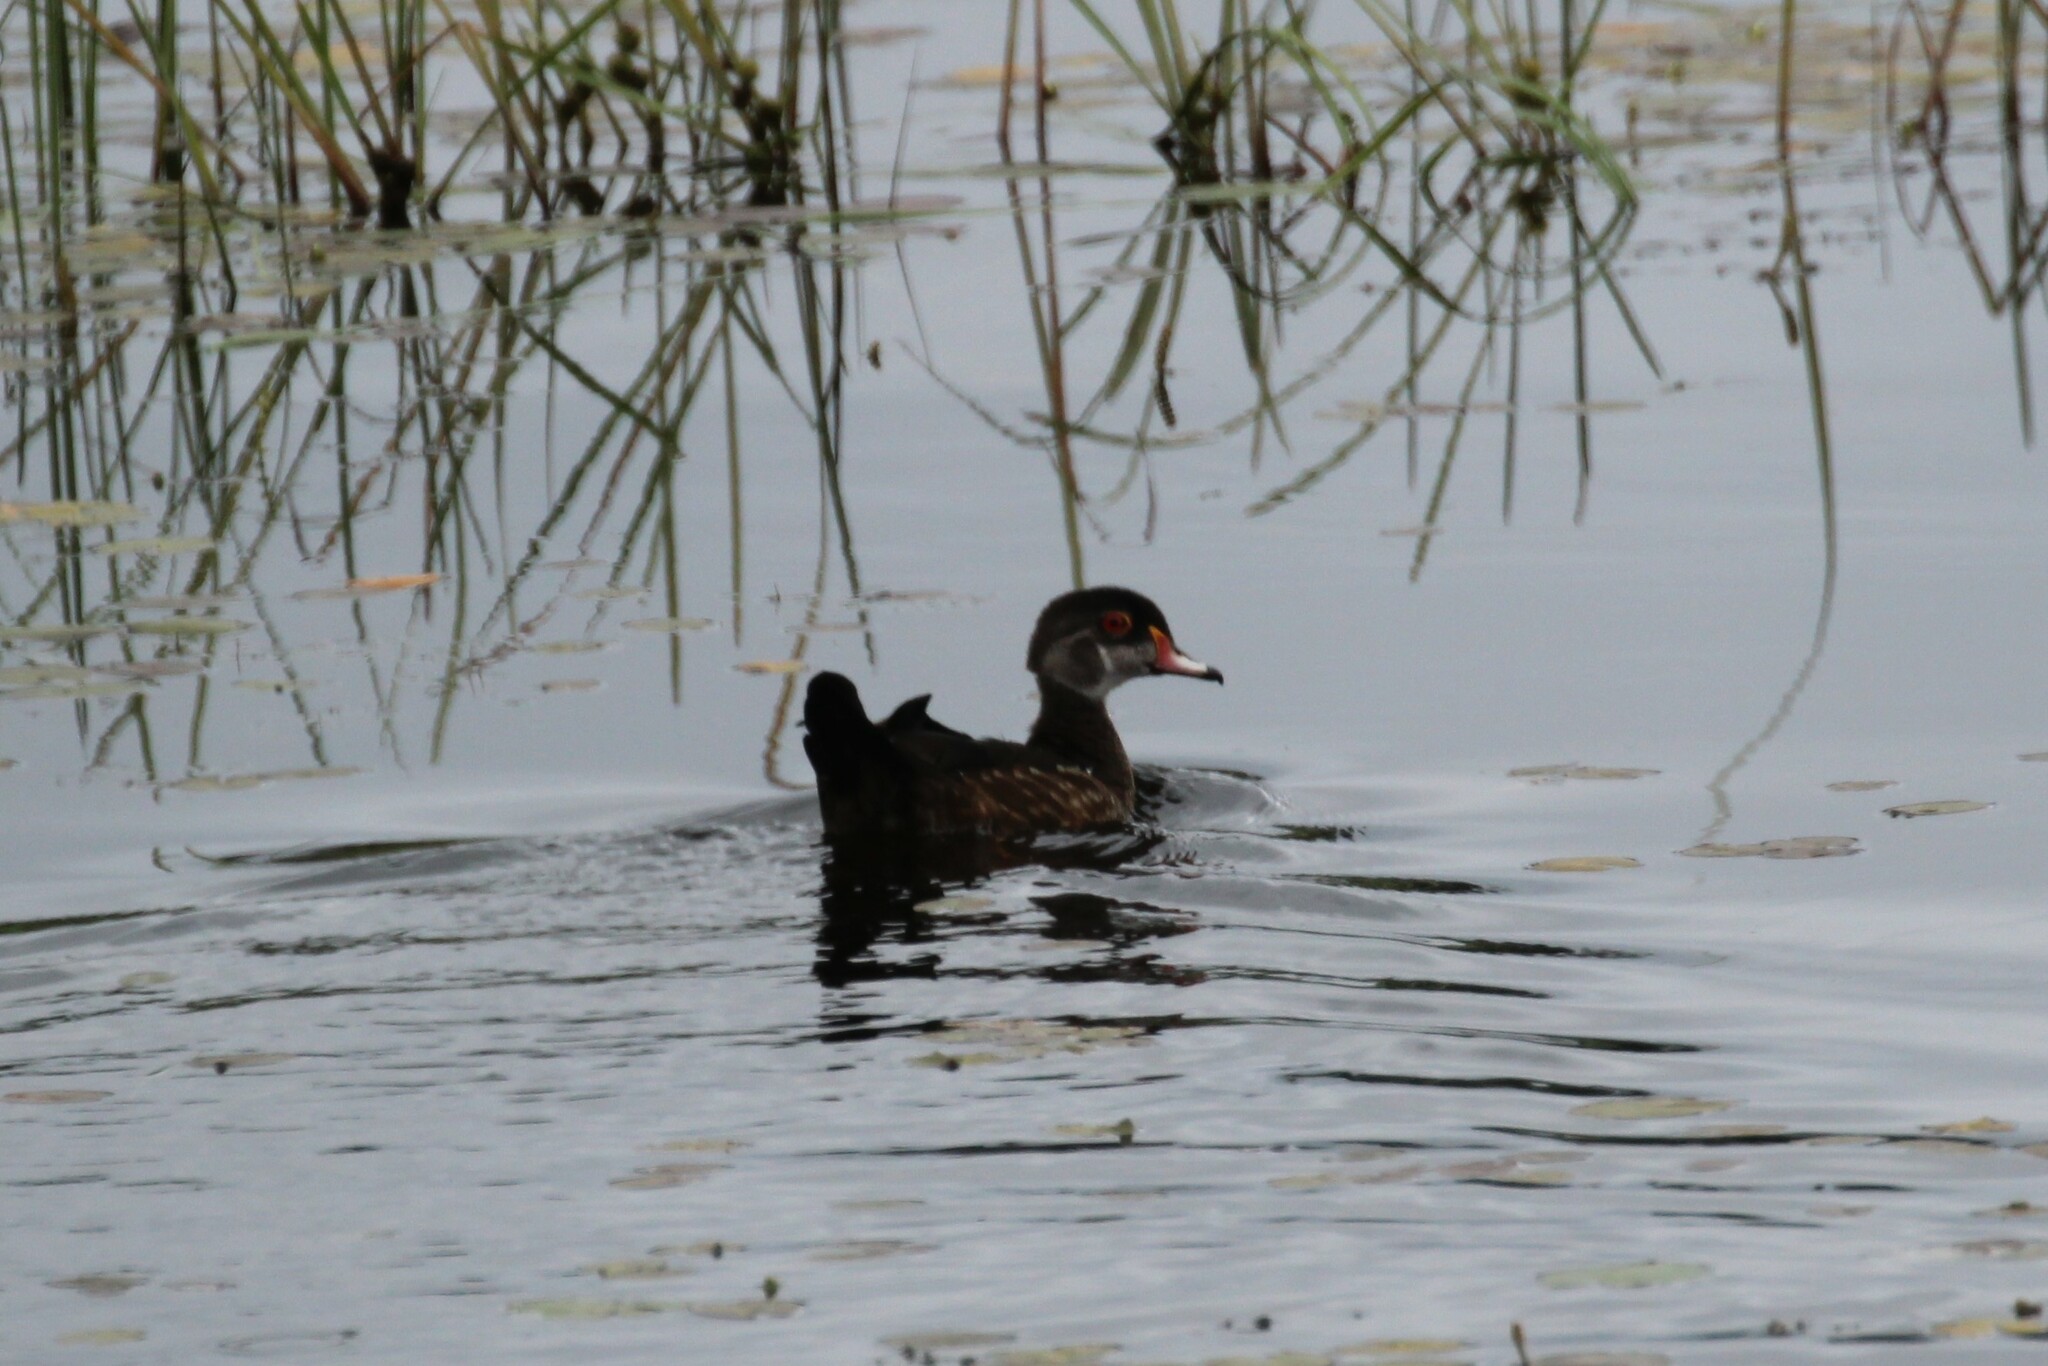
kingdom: Animalia
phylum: Chordata
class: Aves
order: Anseriformes
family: Anatidae
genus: Aix
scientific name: Aix sponsa
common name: Wood duck
